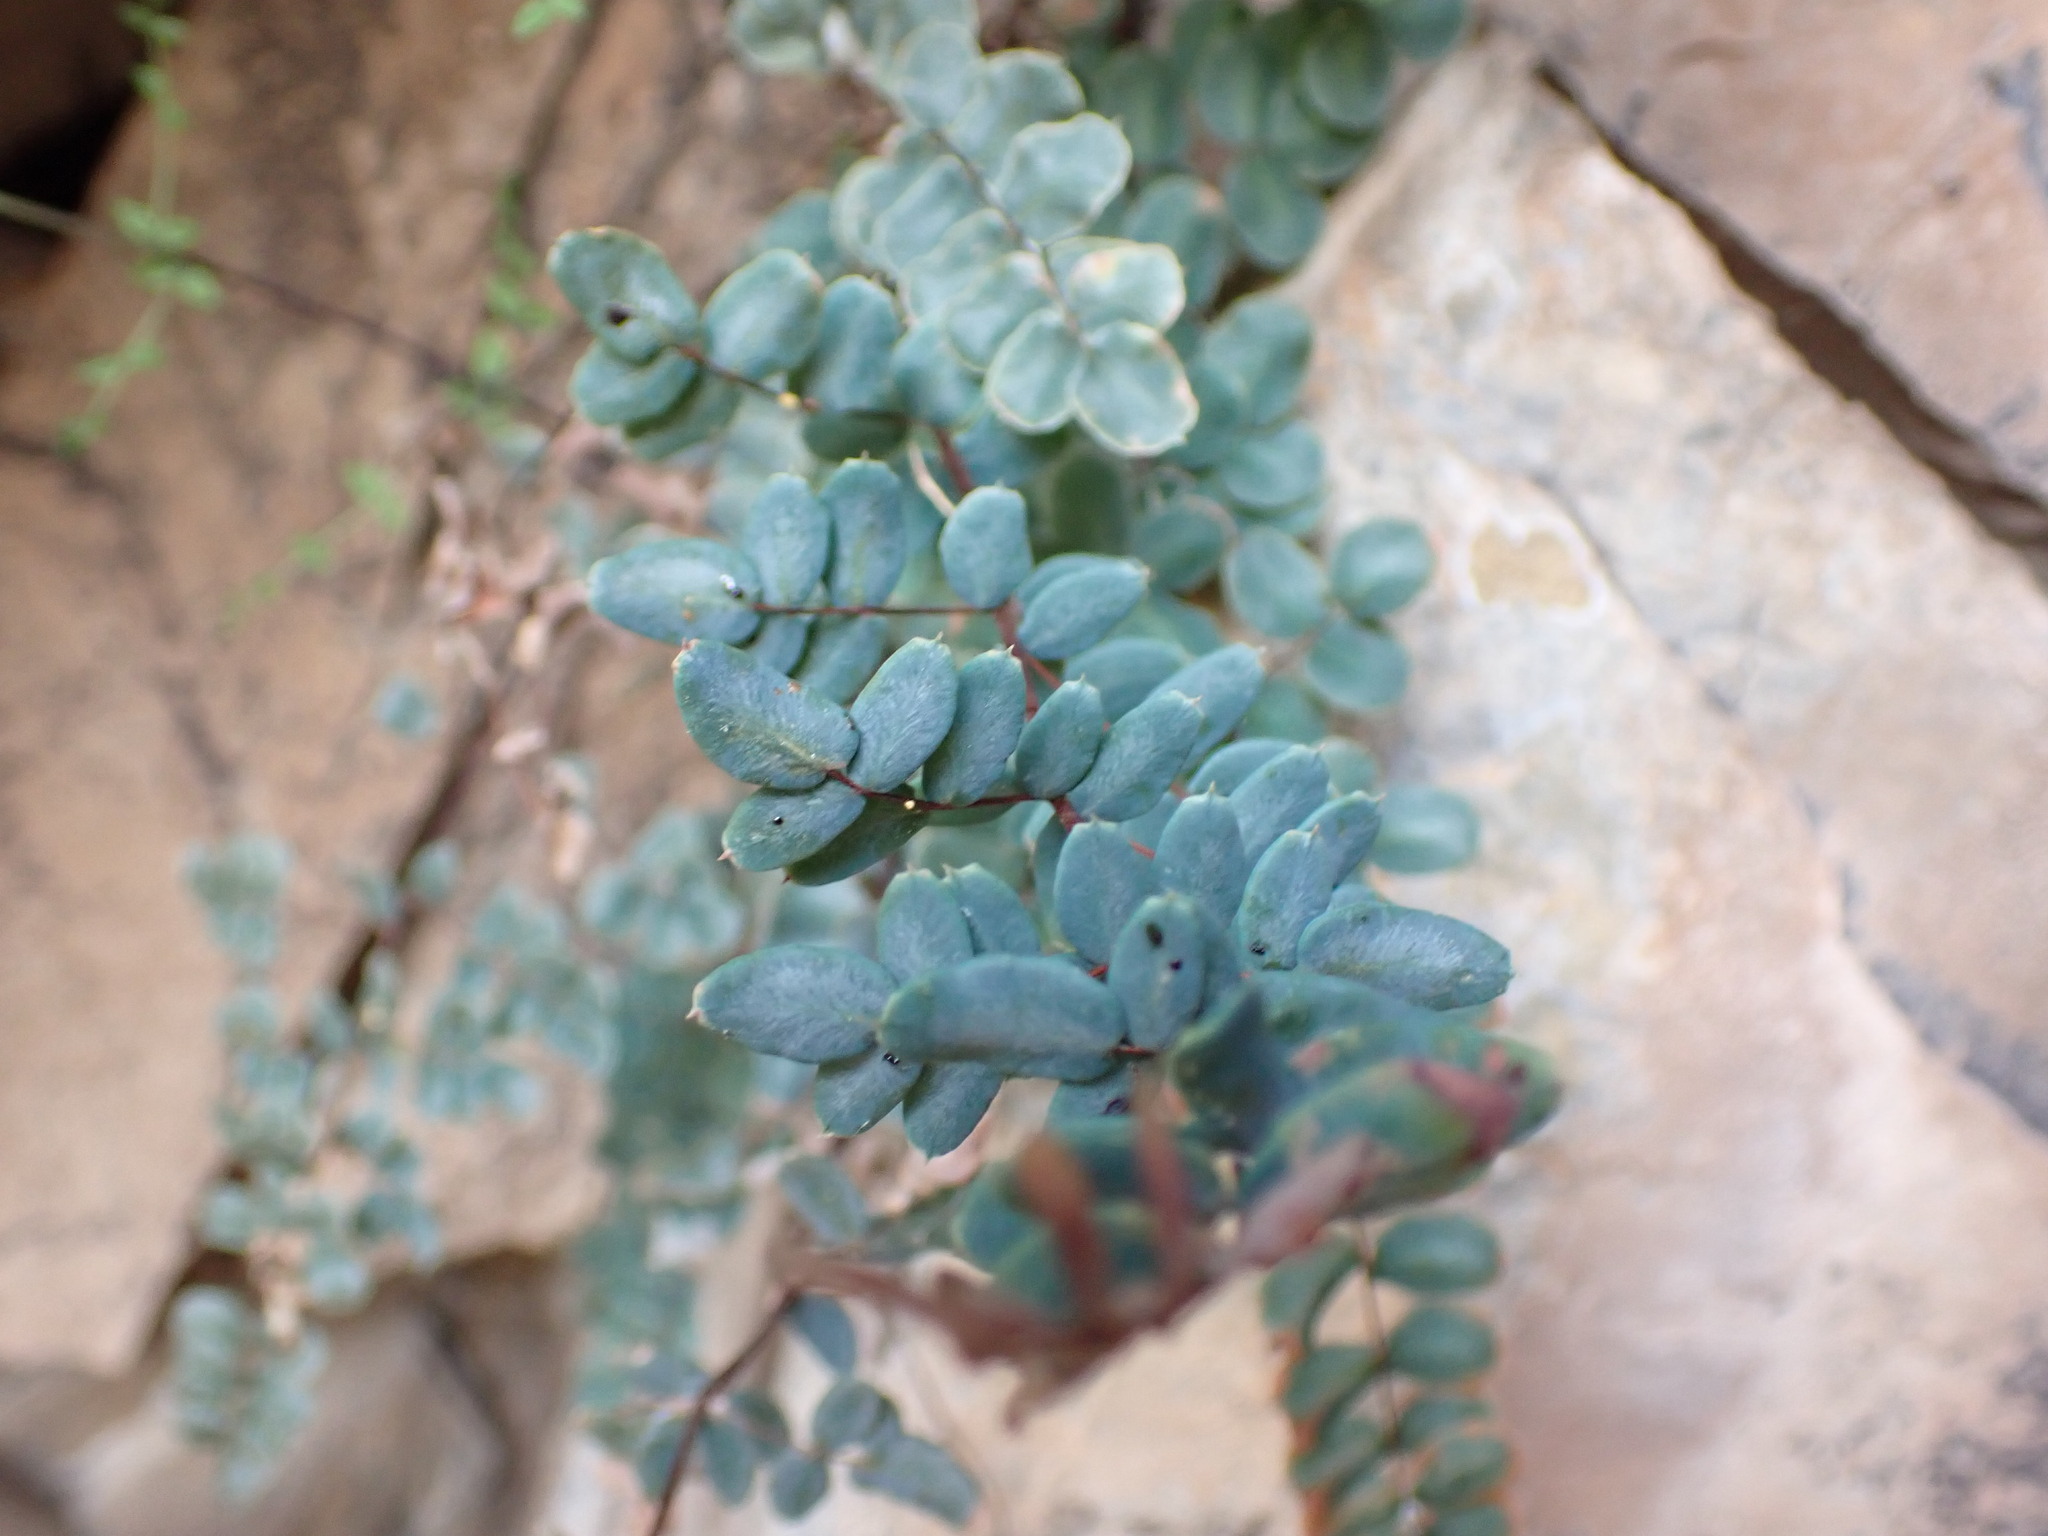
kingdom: Plantae
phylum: Tracheophyta
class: Polypodiopsida
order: Polypodiales
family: Pteridaceae
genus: Pellaea
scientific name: Pellaea truncata
